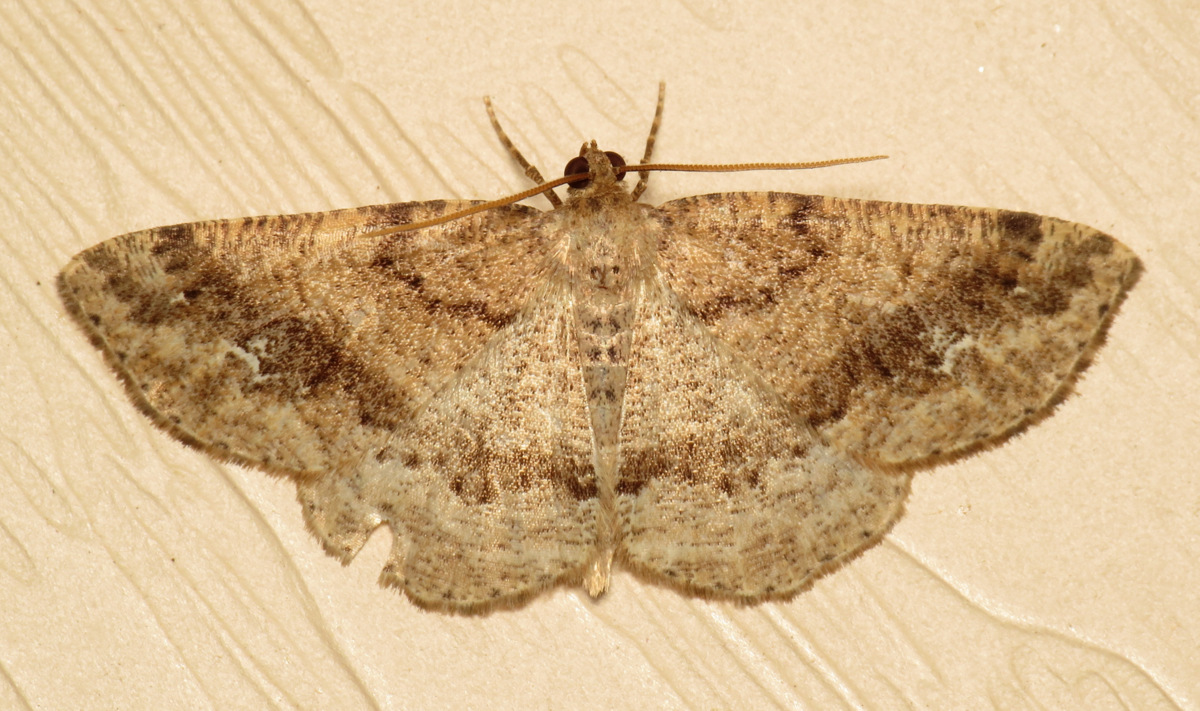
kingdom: Animalia
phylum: Arthropoda
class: Insecta
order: Lepidoptera
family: Geometridae
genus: Homochlodes
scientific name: Homochlodes fritillaria
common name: Pale homochlodes
